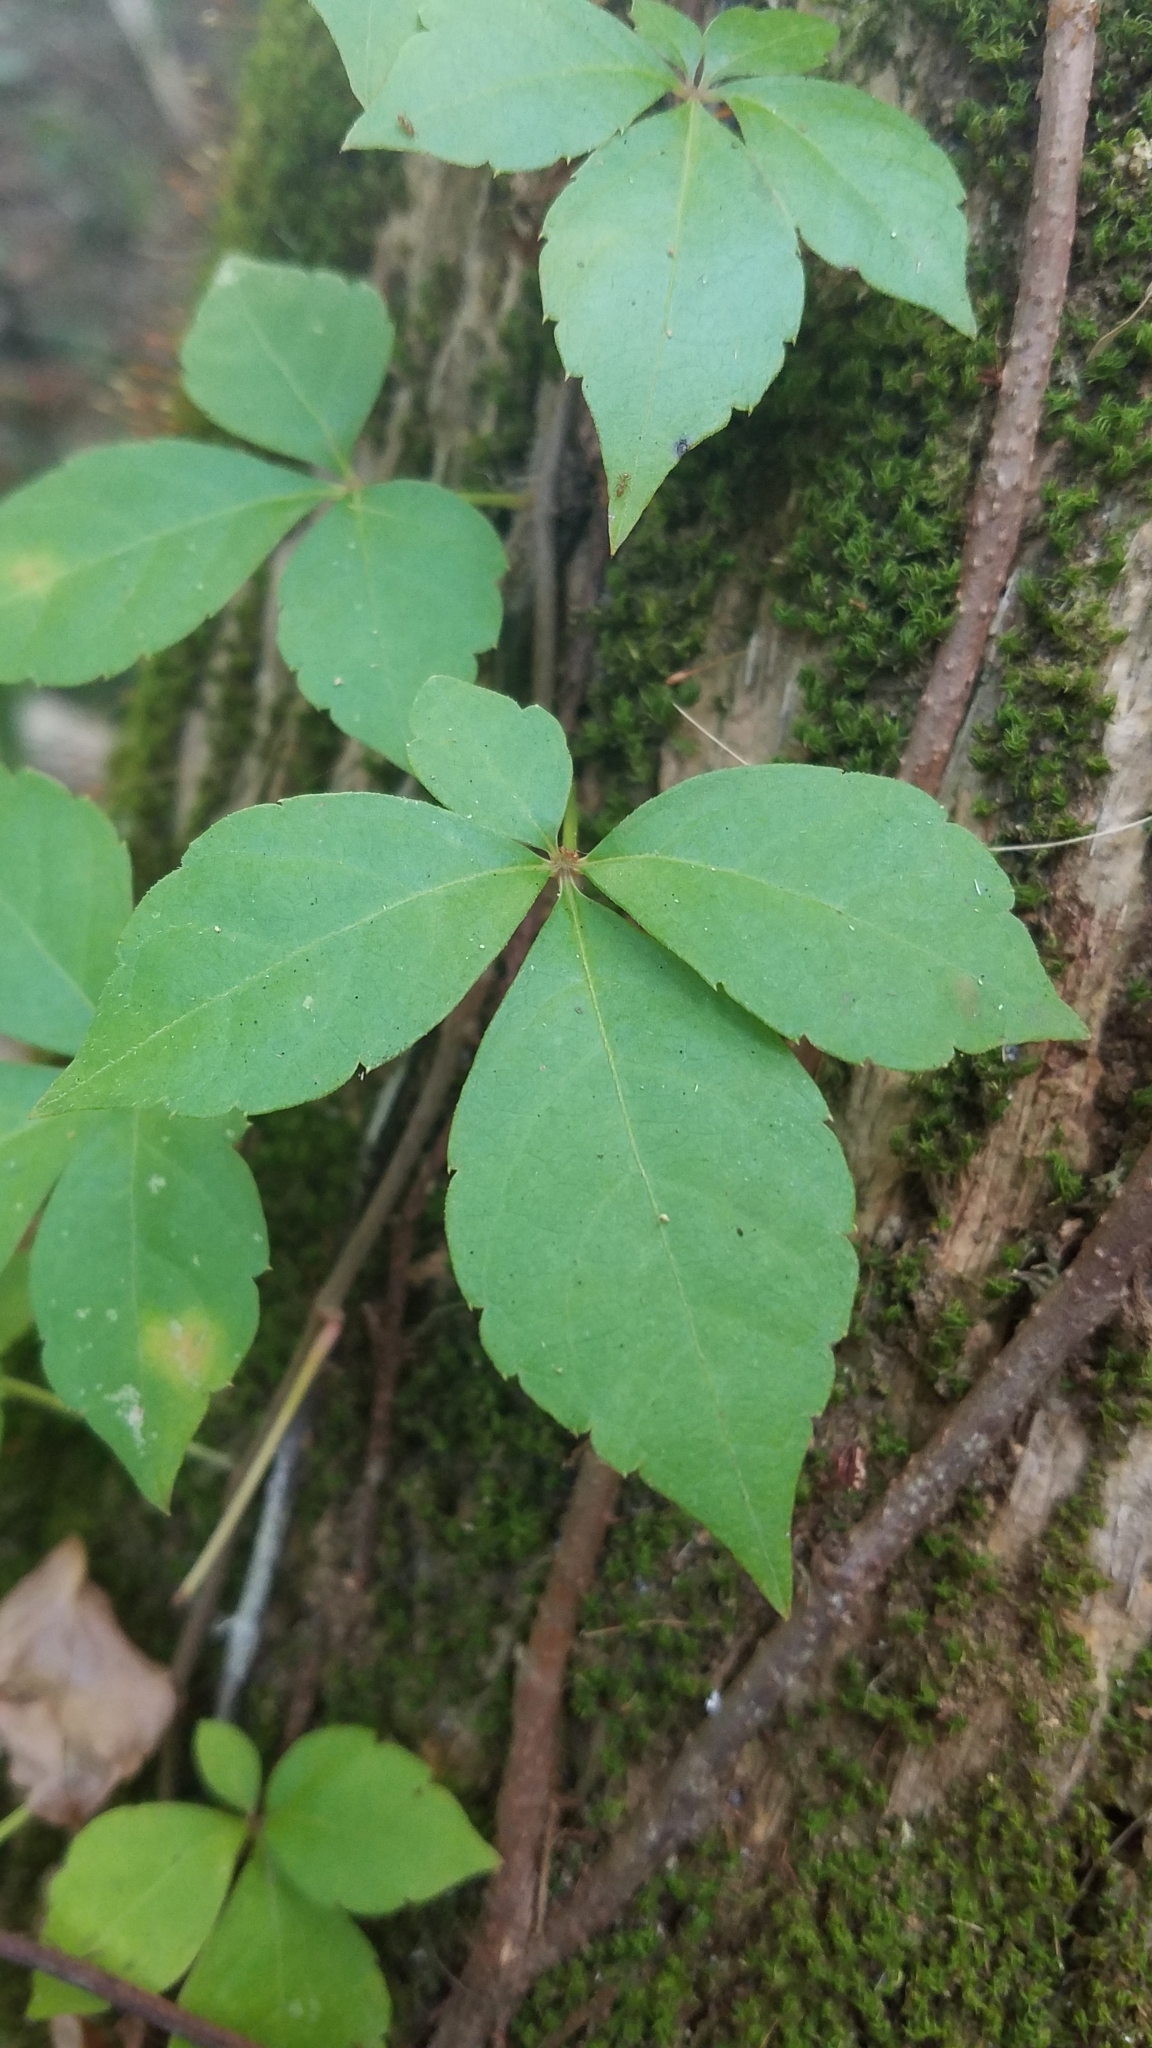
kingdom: Plantae
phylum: Tracheophyta
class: Magnoliopsida
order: Vitales
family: Vitaceae
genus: Parthenocissus
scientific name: Parthenocissus quinquefolia
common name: Virginia-creeper
